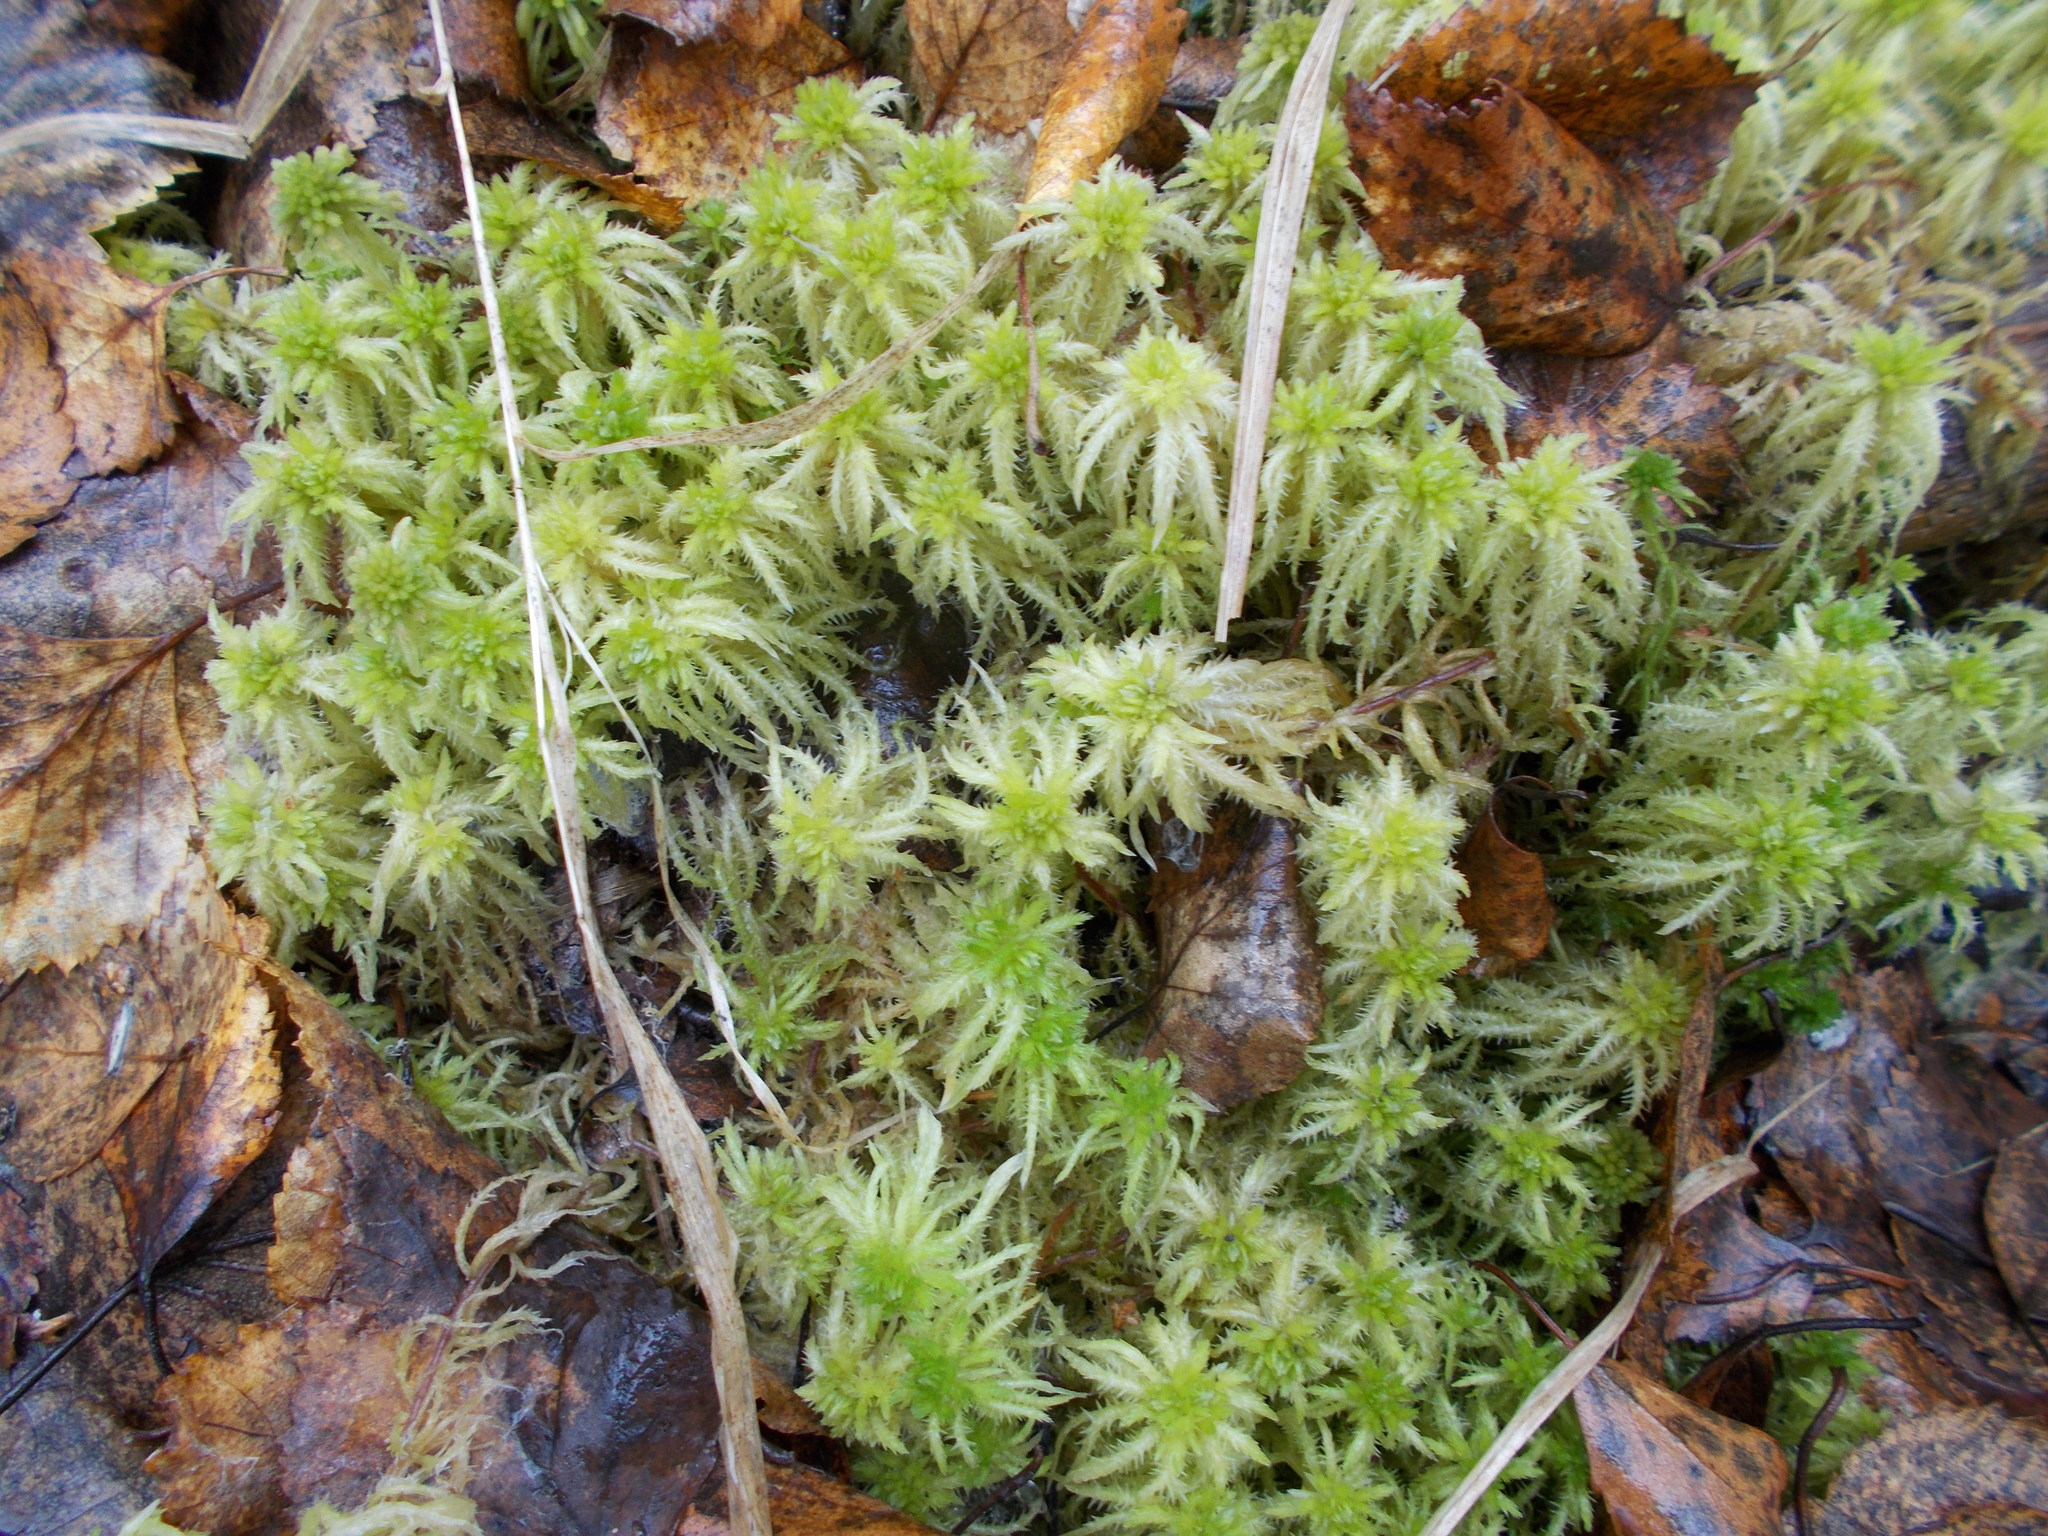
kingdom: Plantae
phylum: Bryophyta
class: Sphagnopsida
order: Sphagnales
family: Sphagnaceae
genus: Sphagnum
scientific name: Sphagnum squarrosum
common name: Shaggy peat moss
